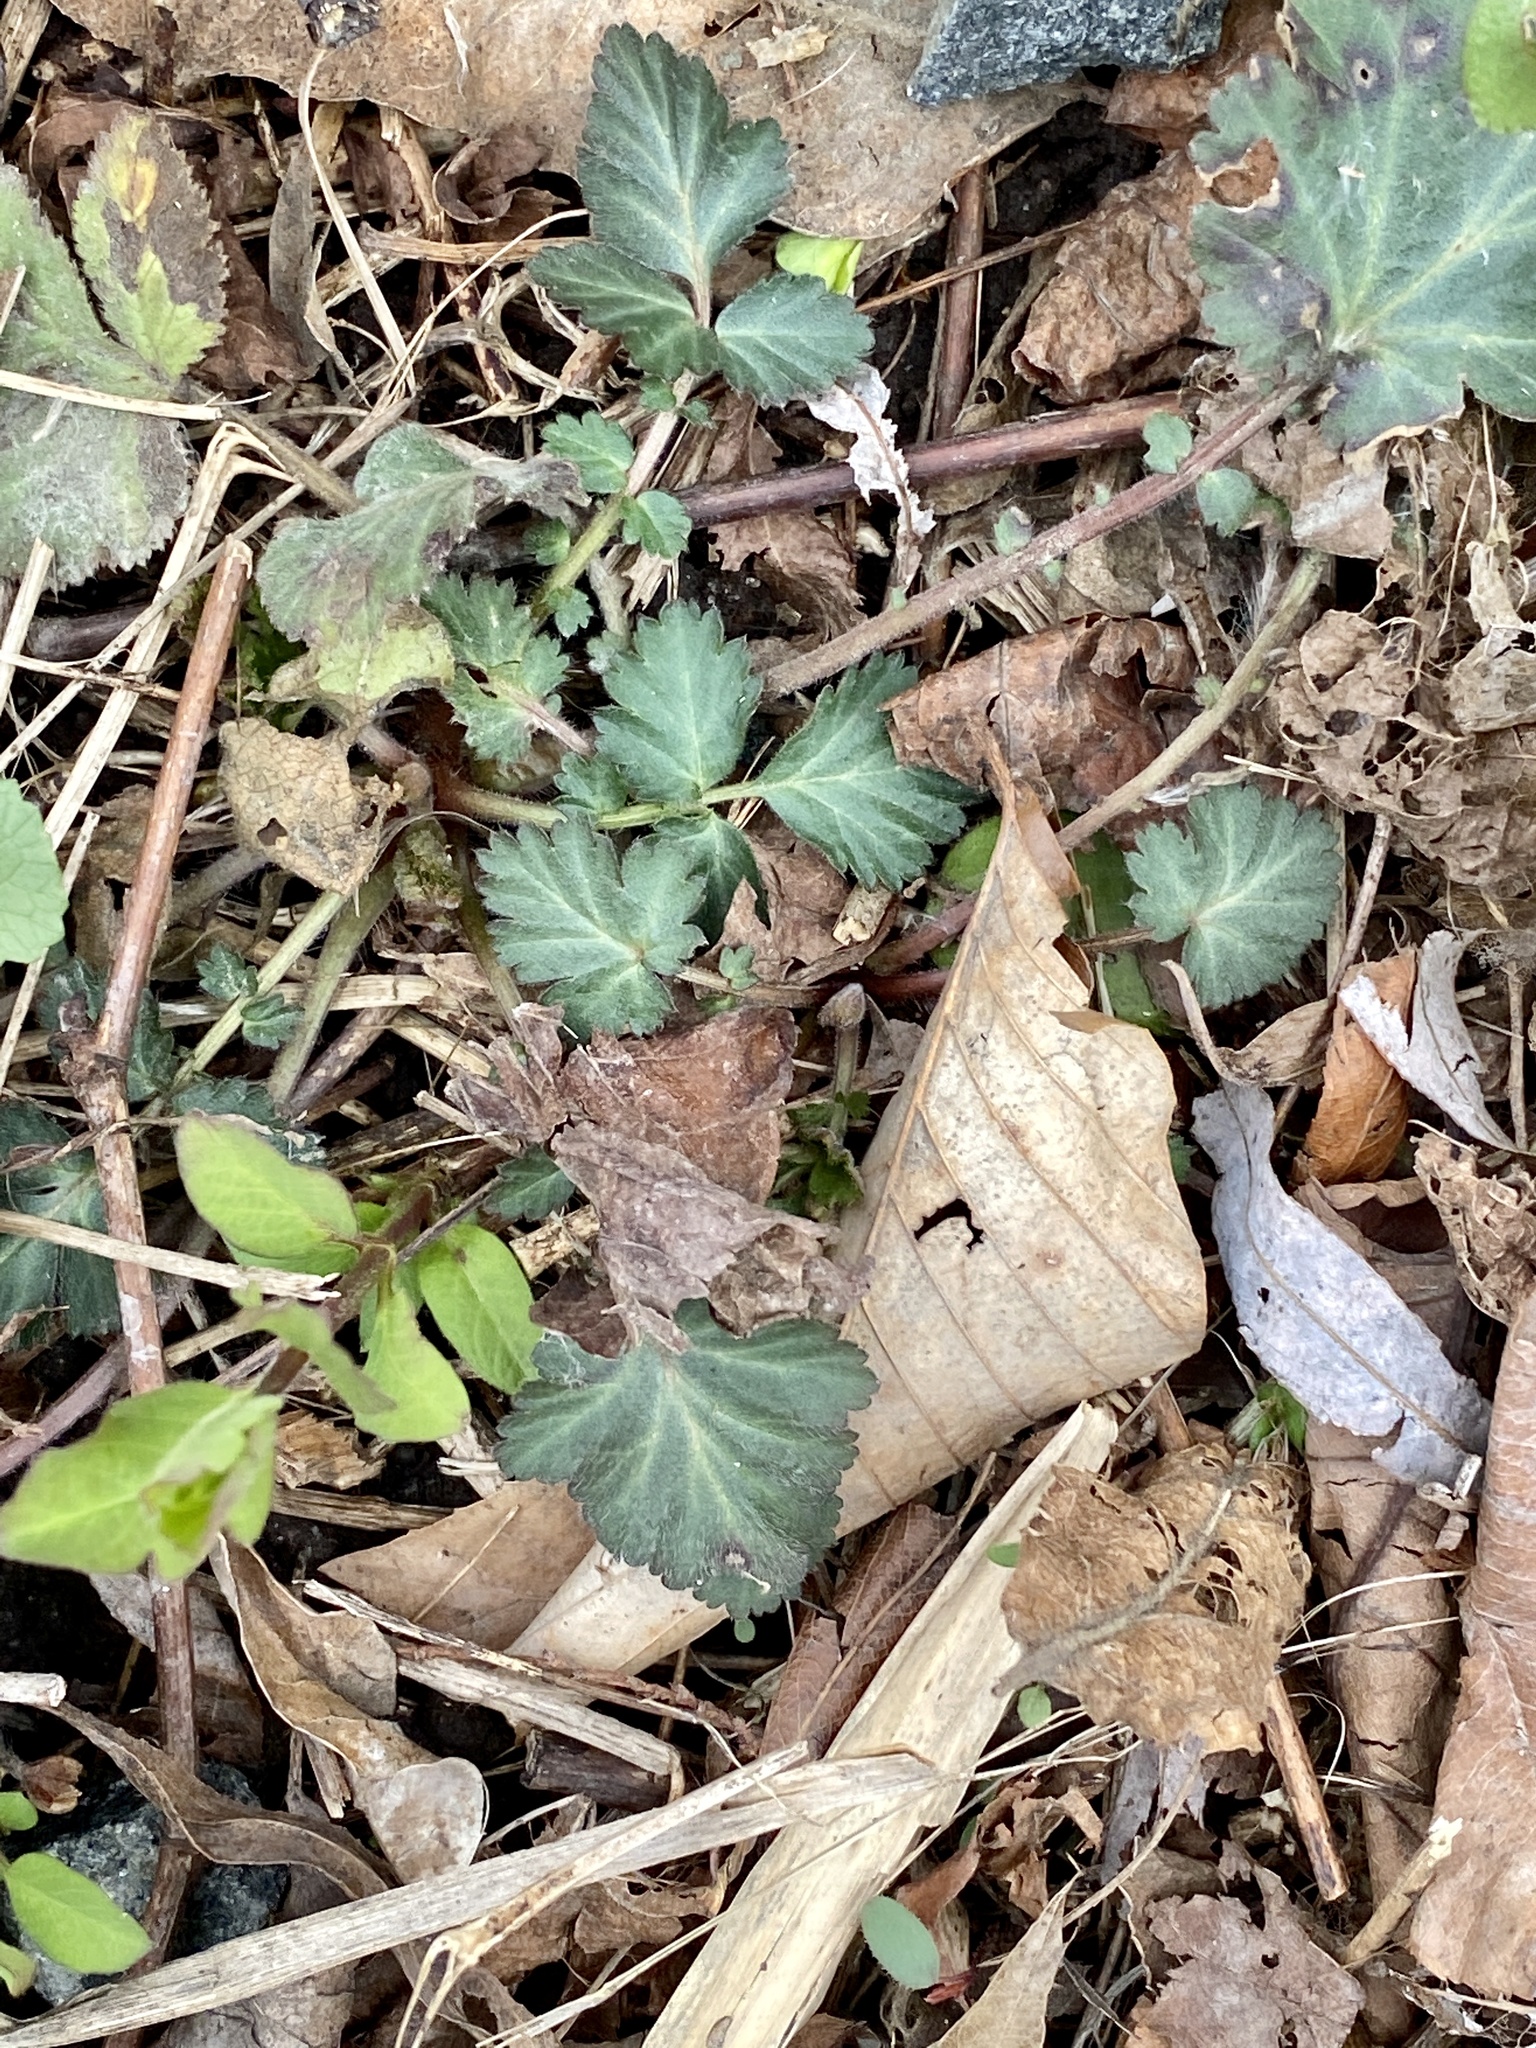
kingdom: Plantae
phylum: Tracheophyta
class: Magnoliopsida
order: Rosales
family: Rosaceae
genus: Geum
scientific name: Geum canadense
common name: White avens
